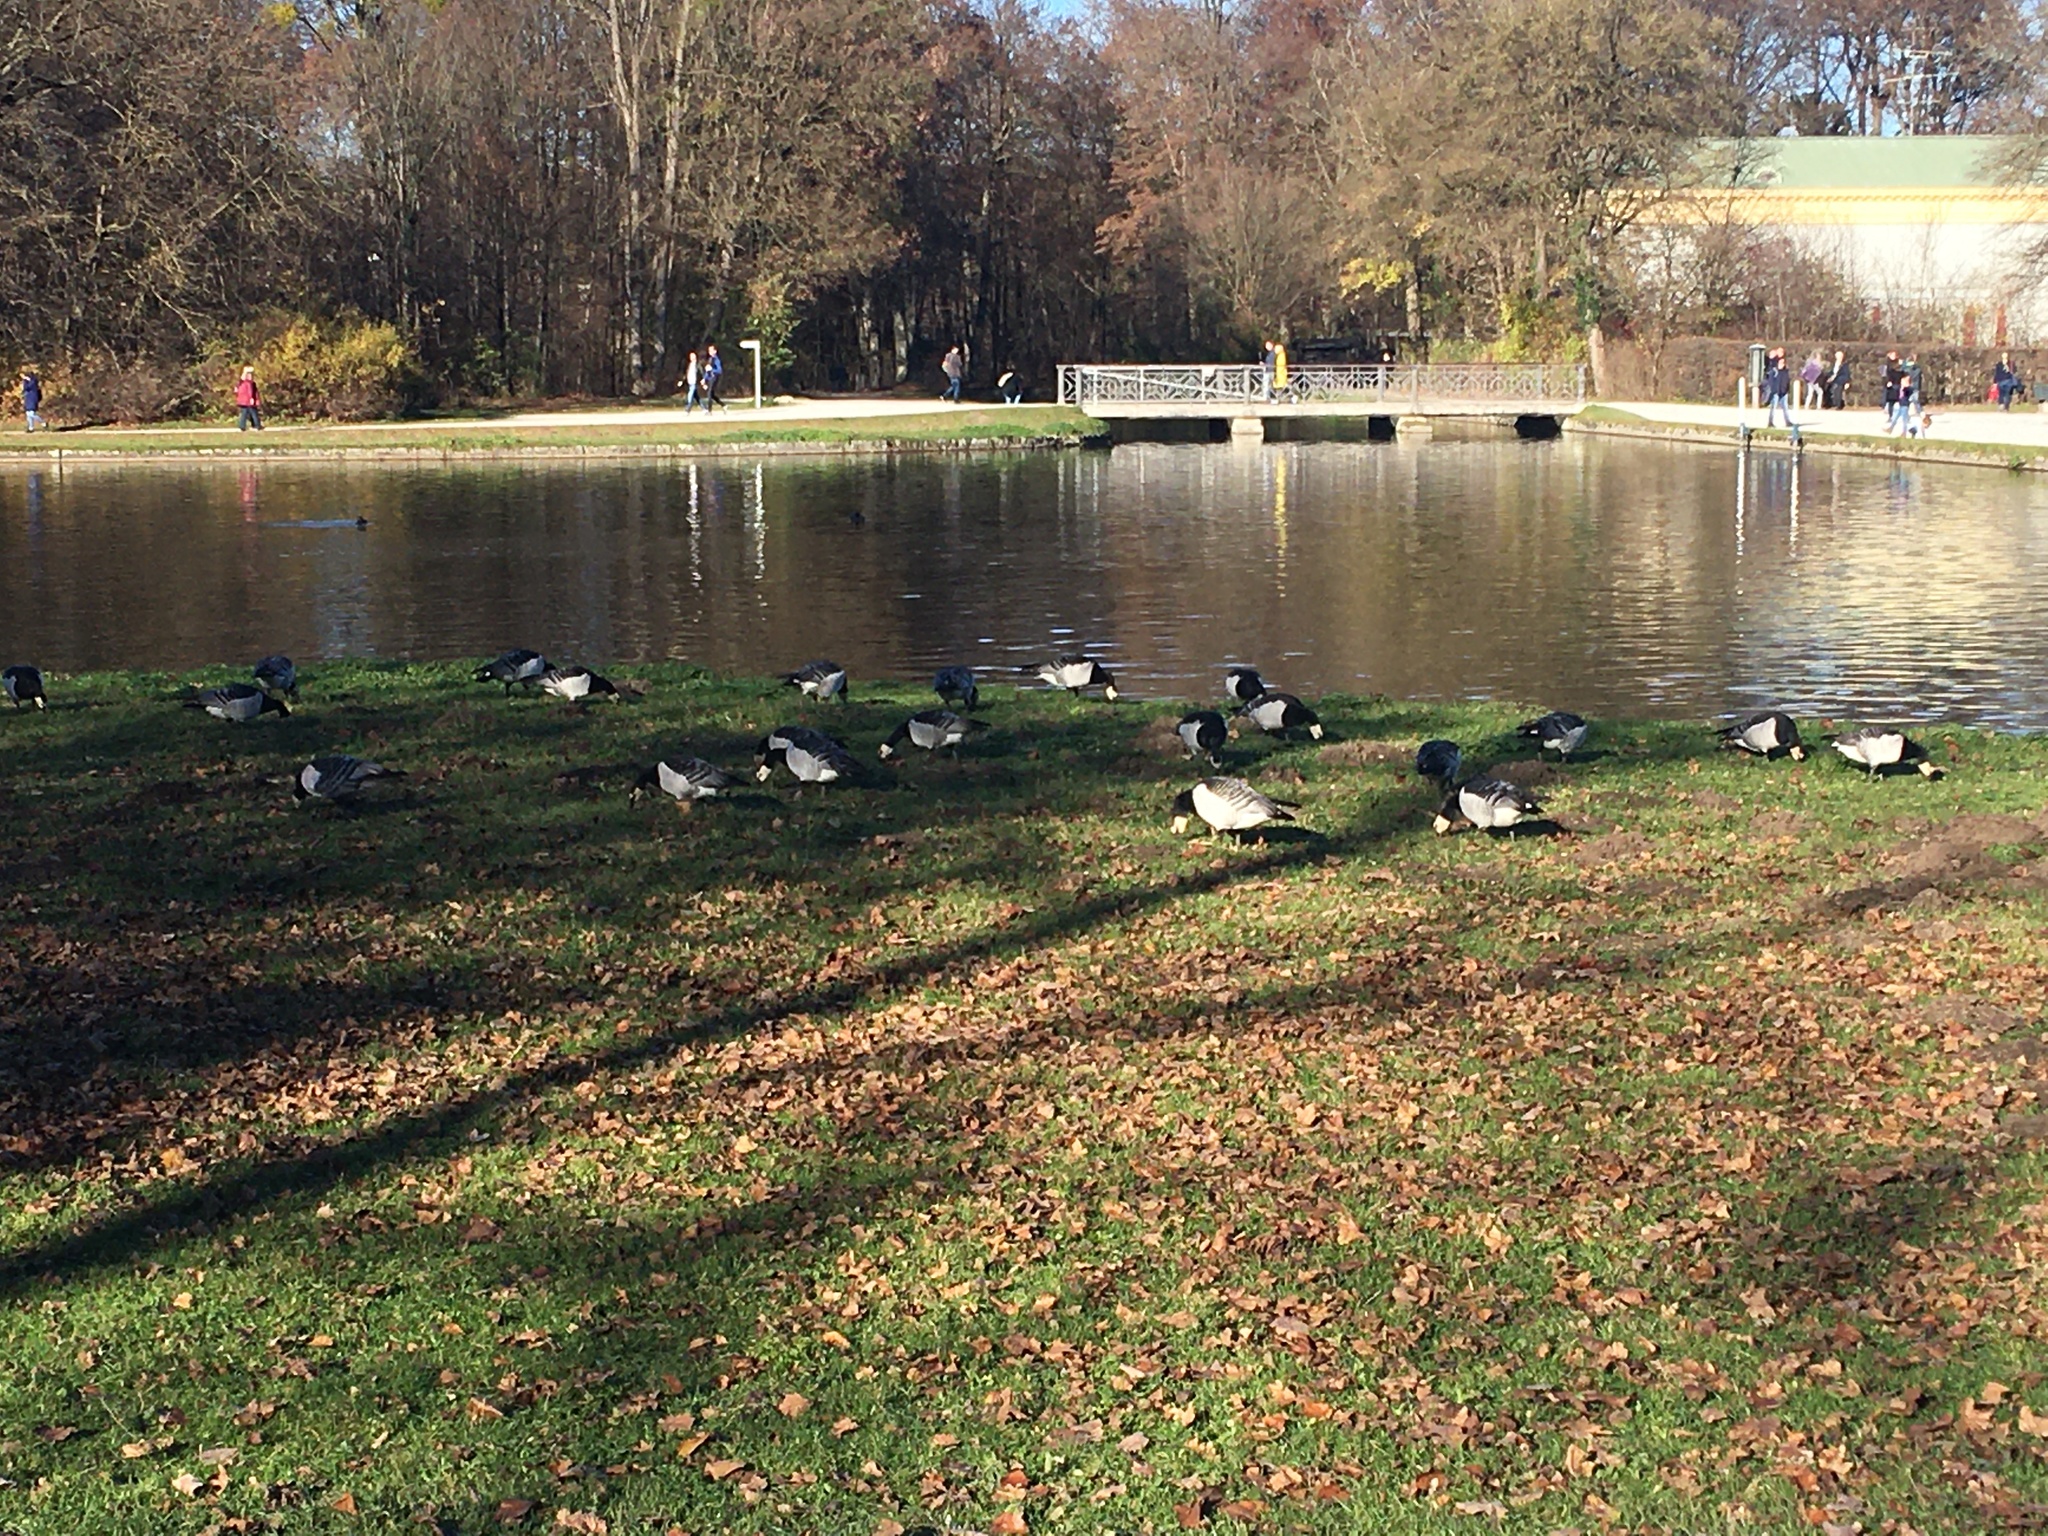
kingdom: Animalia
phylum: Chordata
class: Aves
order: Anseriformes
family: Anatidae
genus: Branta
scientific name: Branta leucopsis
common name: Barnacle goose
